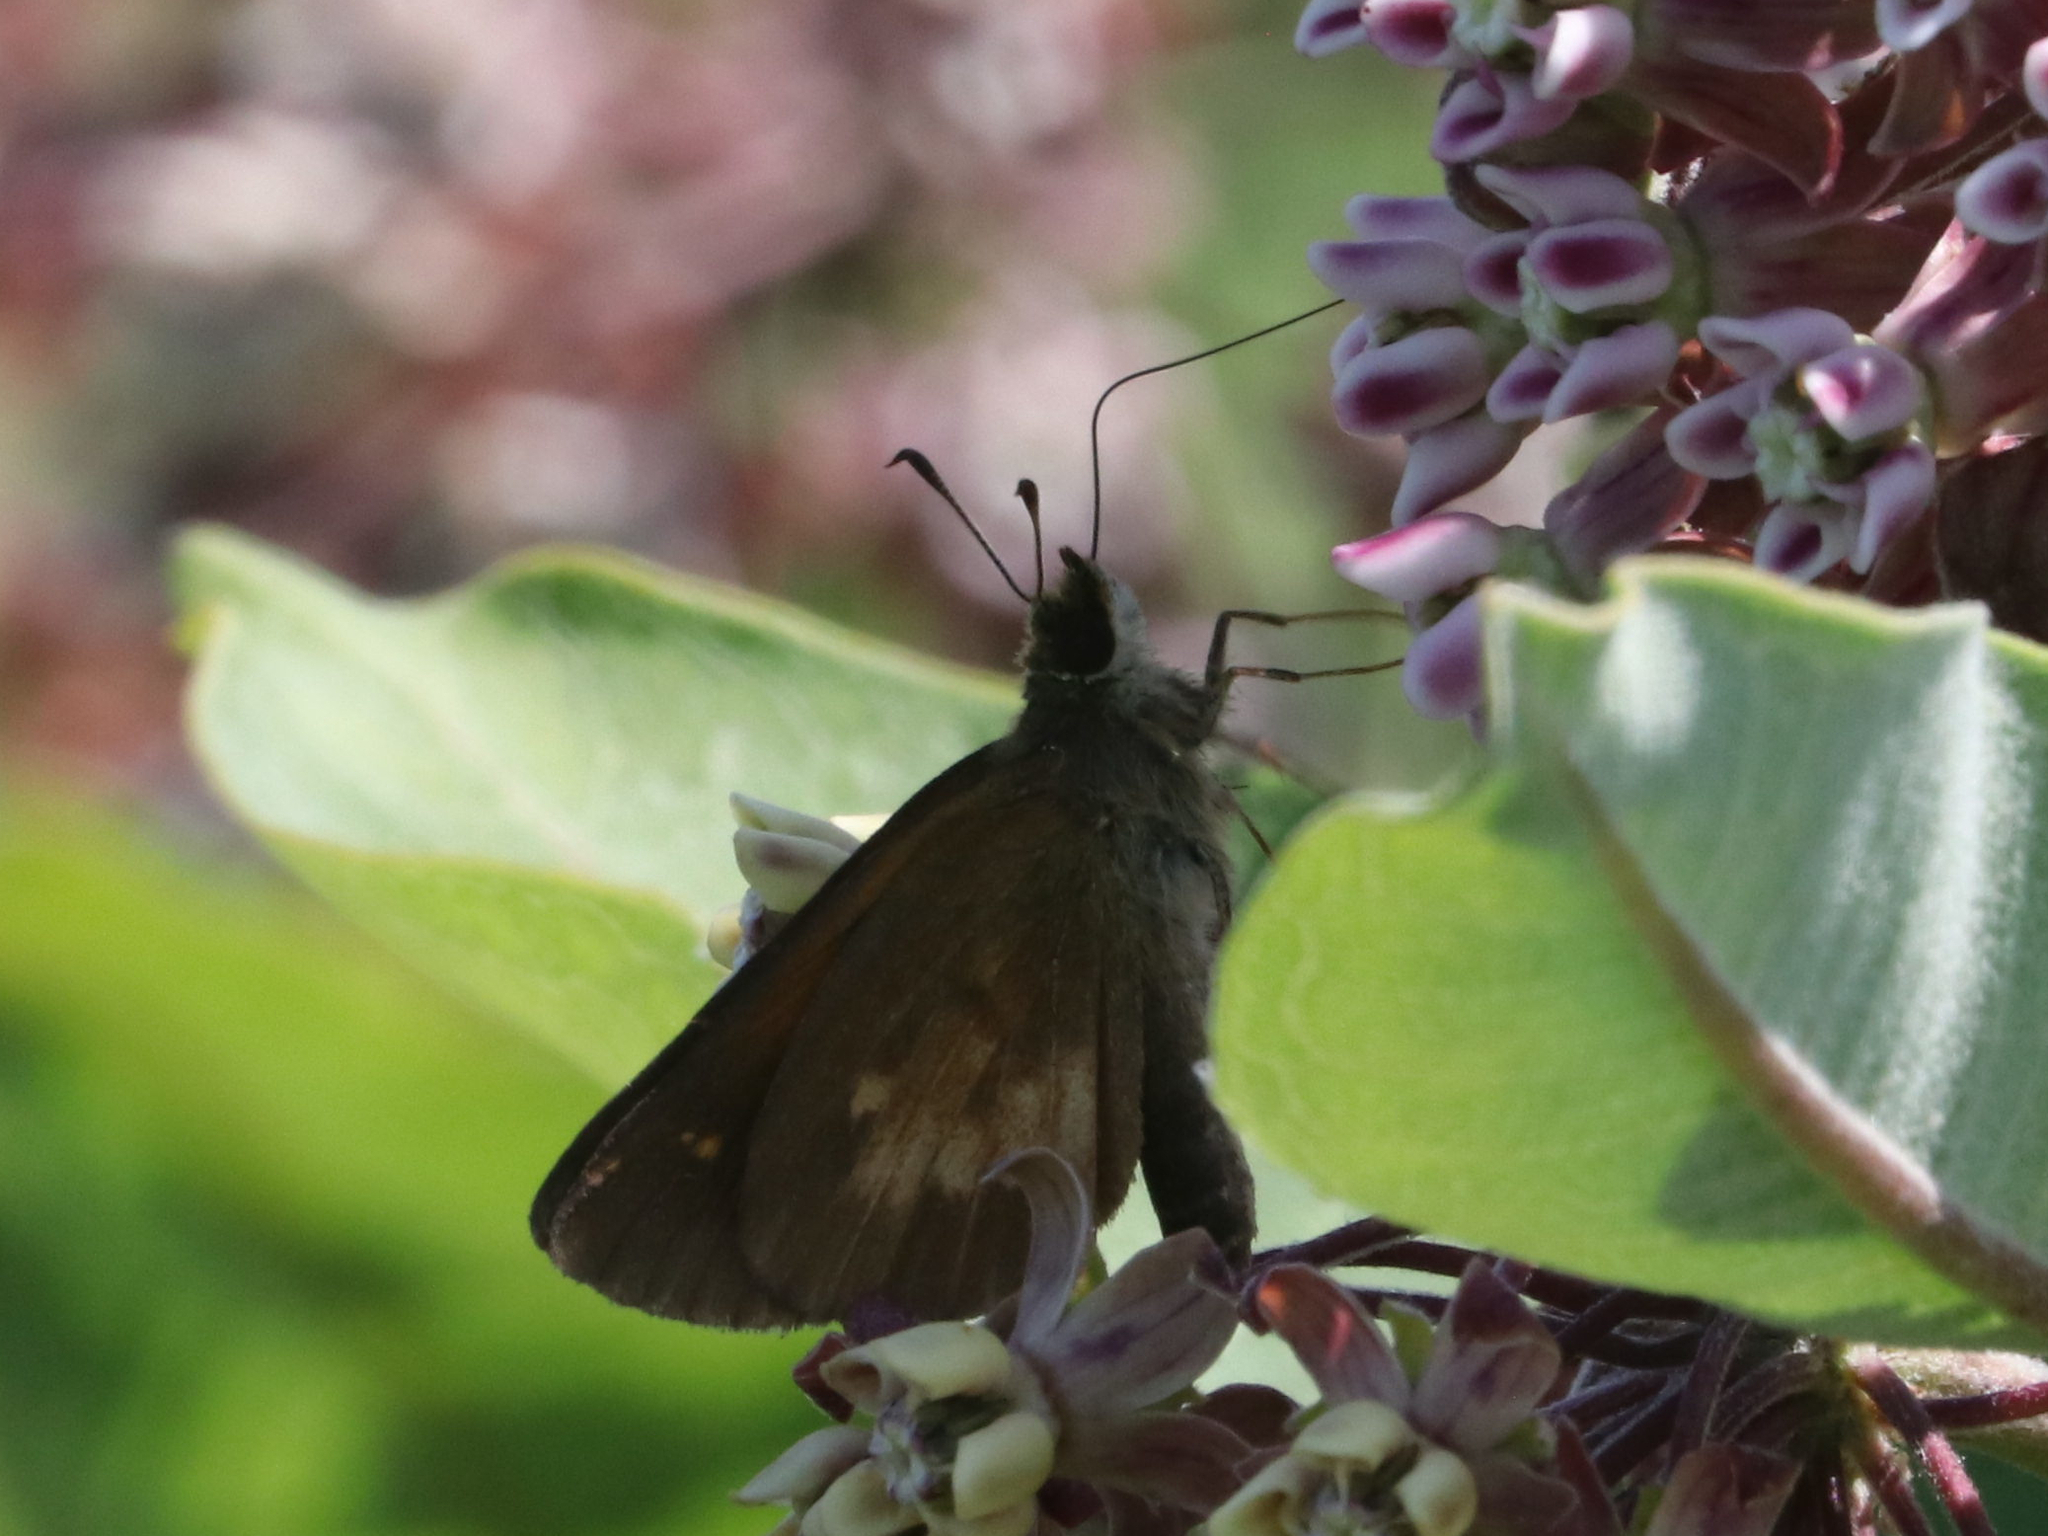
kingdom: Animalia
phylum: Arthropoda
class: Insecta
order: Lepidoptera
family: Hesperiidae
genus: Poanes
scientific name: Poanes viator
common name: Broad-winged skipper
